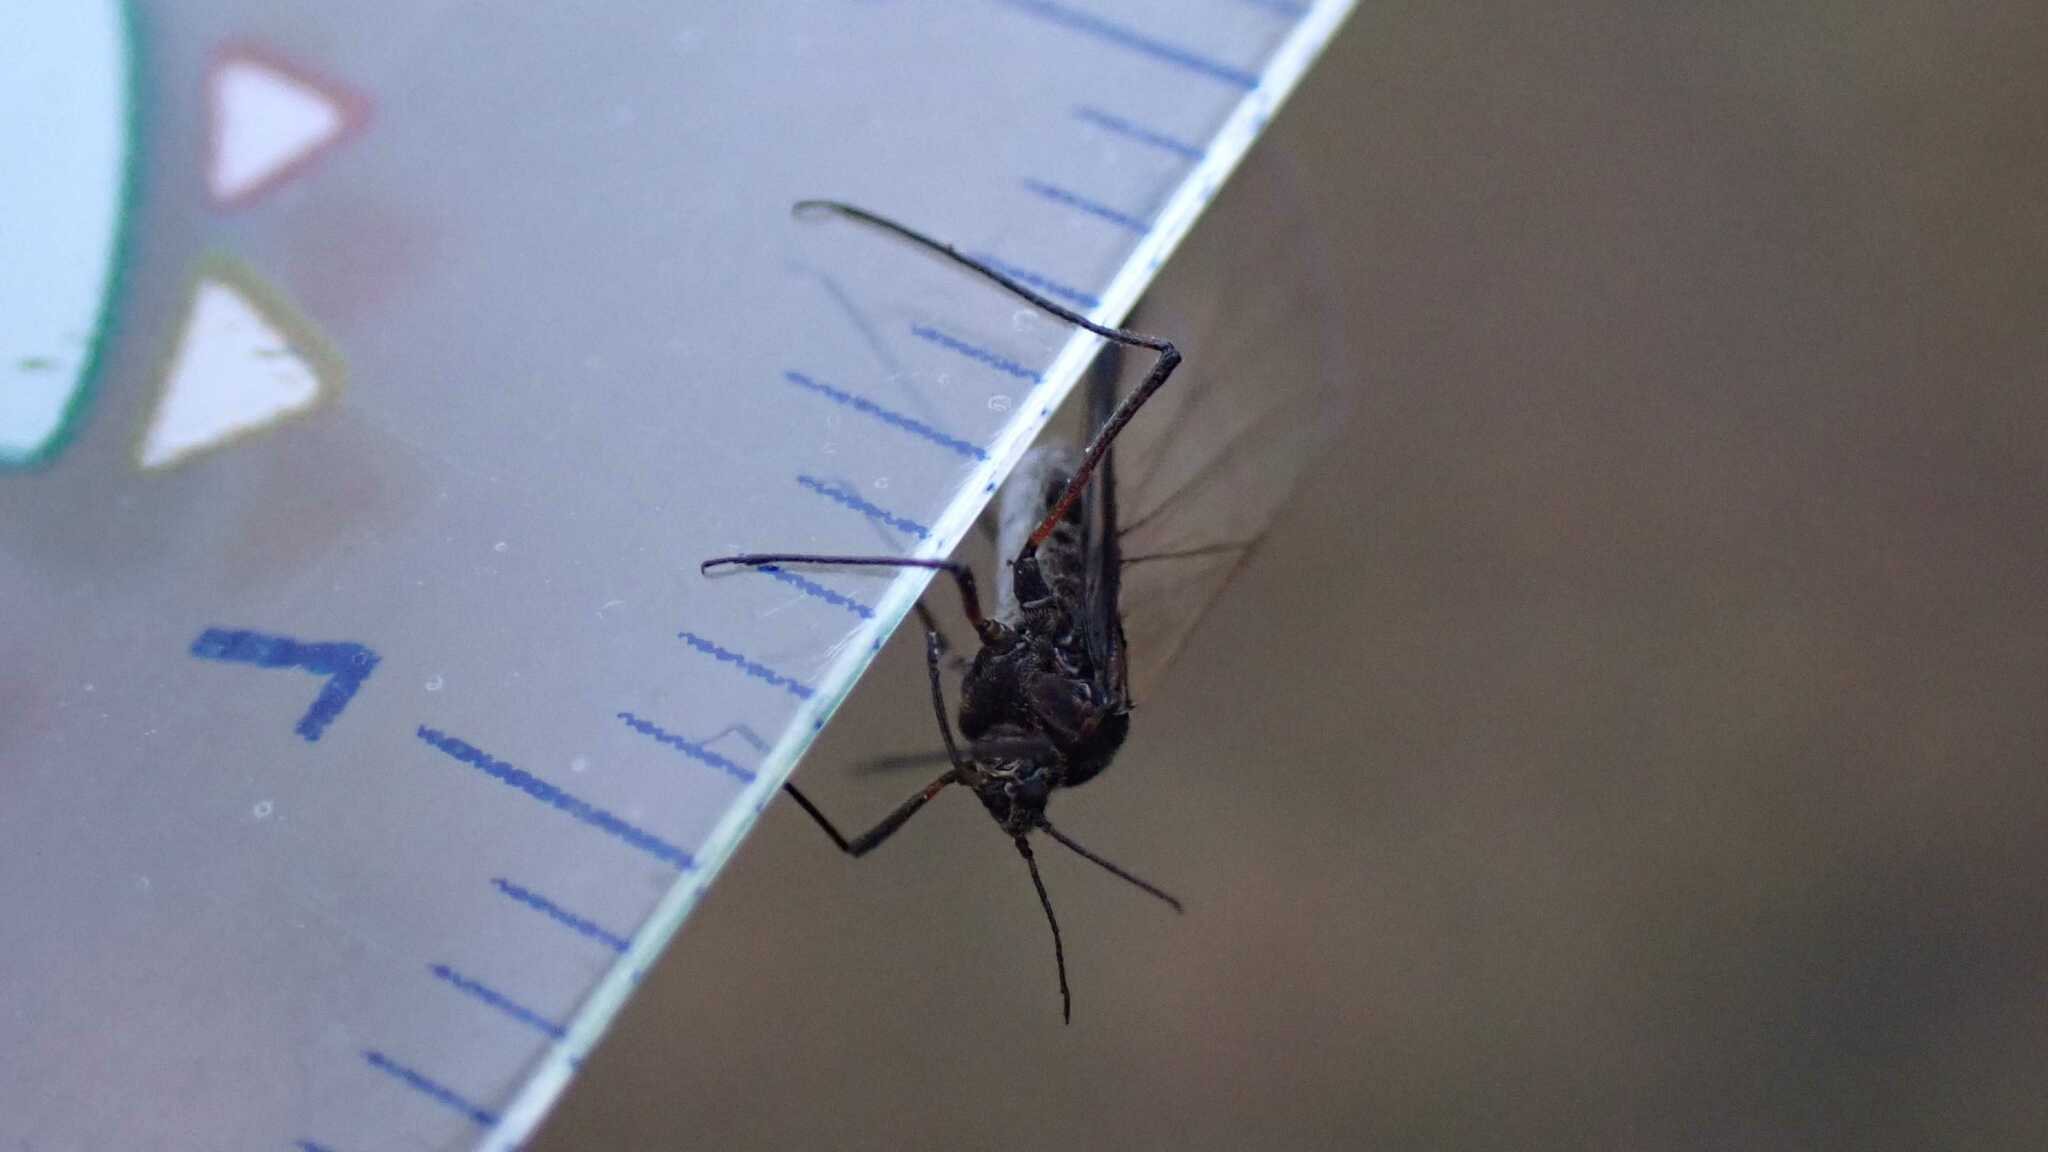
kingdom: Animalia
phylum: Arthropoda
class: Insecta
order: Hemiptera
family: Aphididae
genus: Tuberolachnus
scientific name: Tuberolachnus salignus
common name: Giant willow aphid
